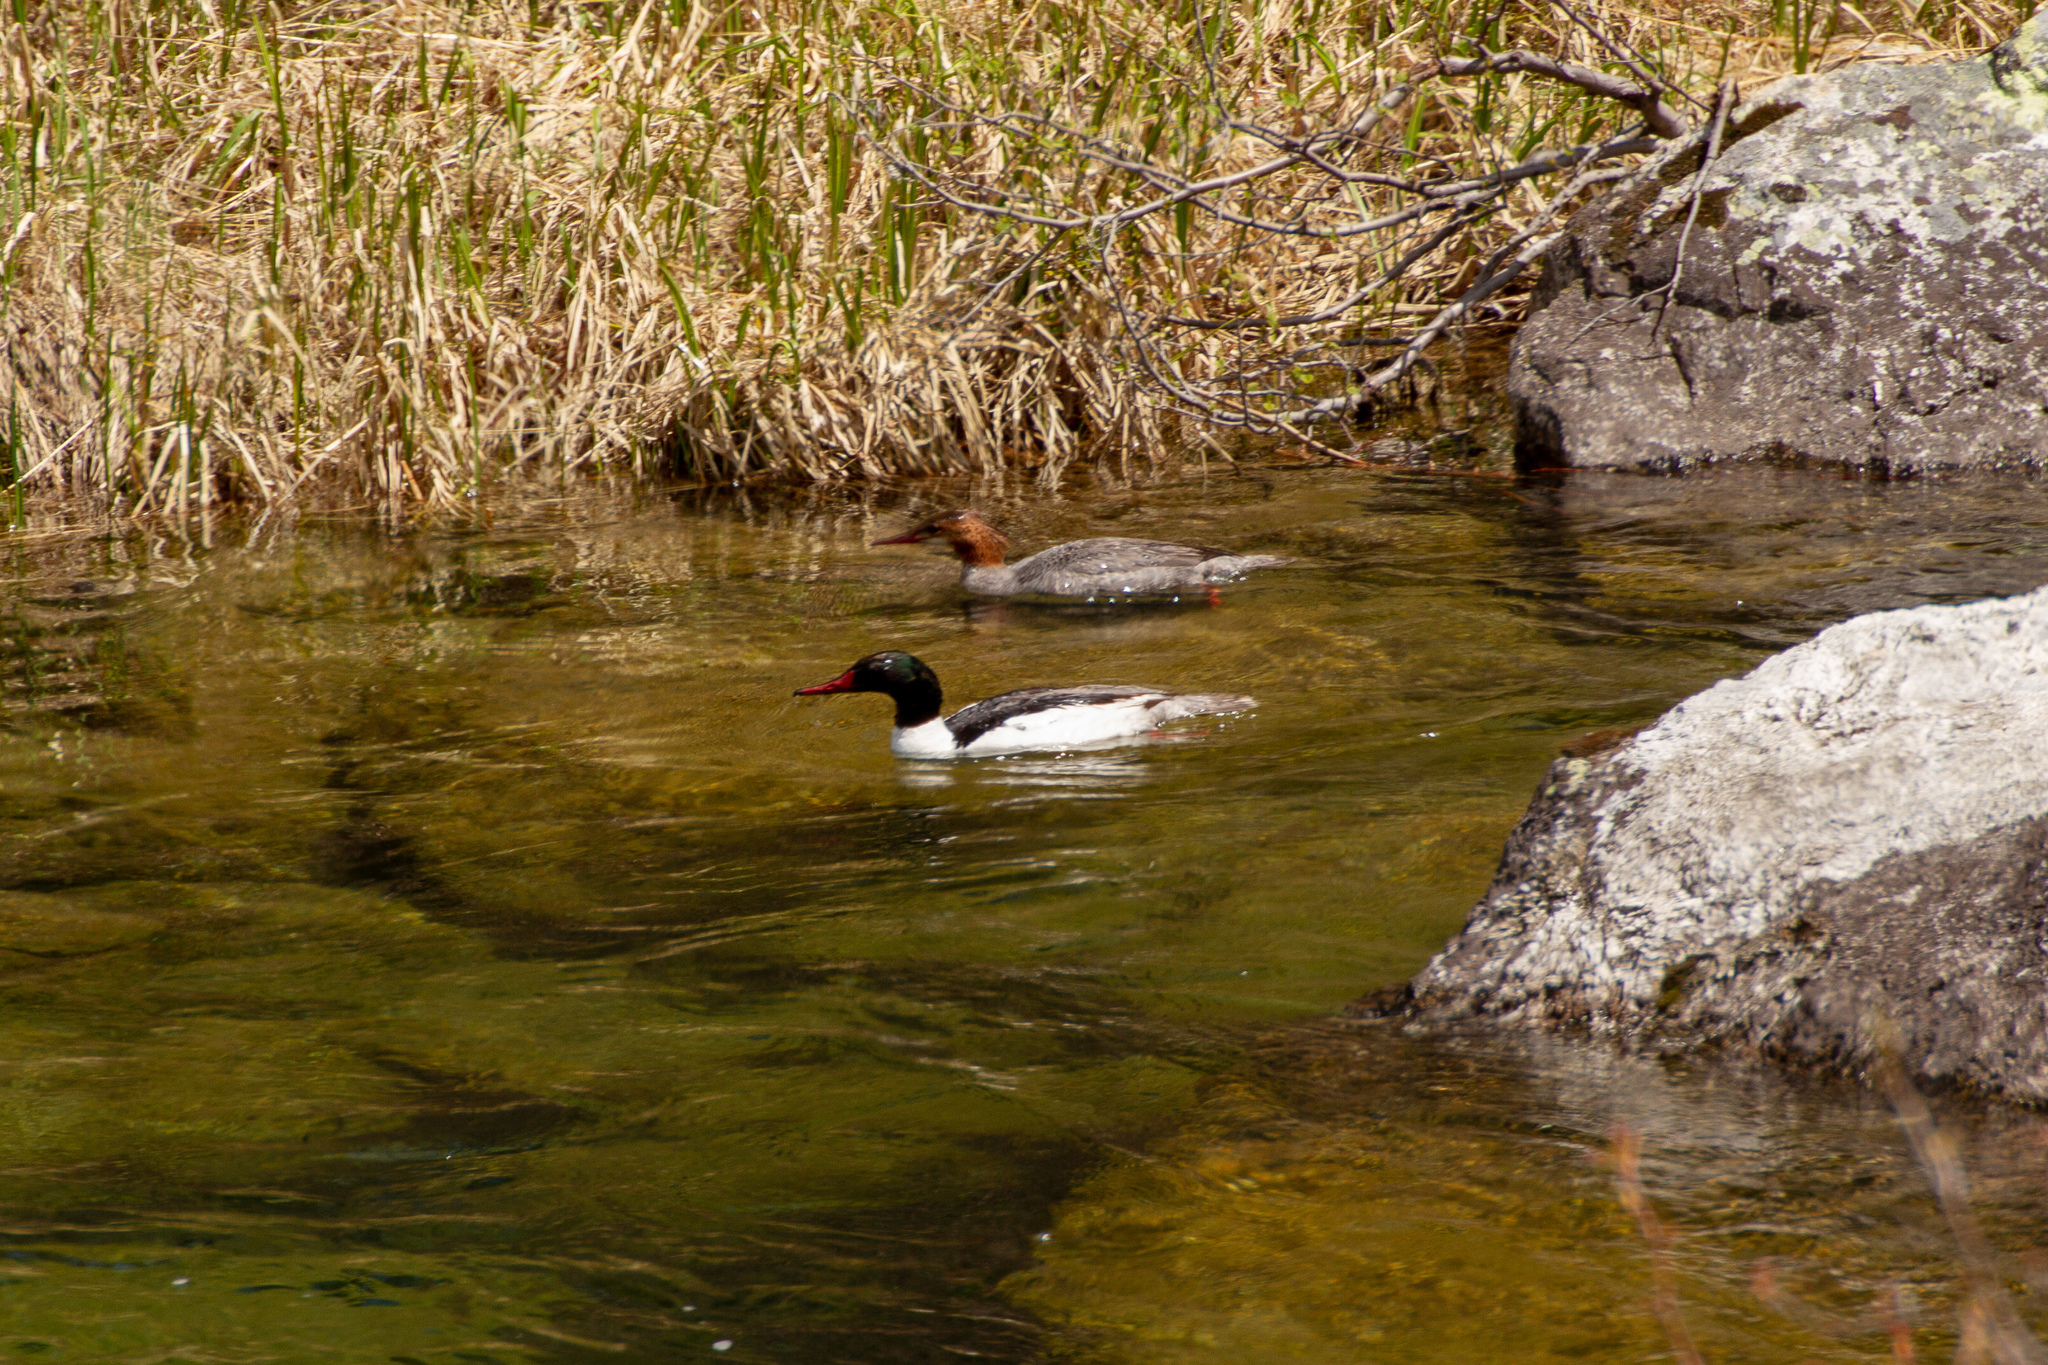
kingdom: Animalia
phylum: Chordata
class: Aves
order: Anseriformes
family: Anatidae
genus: Mergus
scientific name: Mergus merganser
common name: Common merganser
